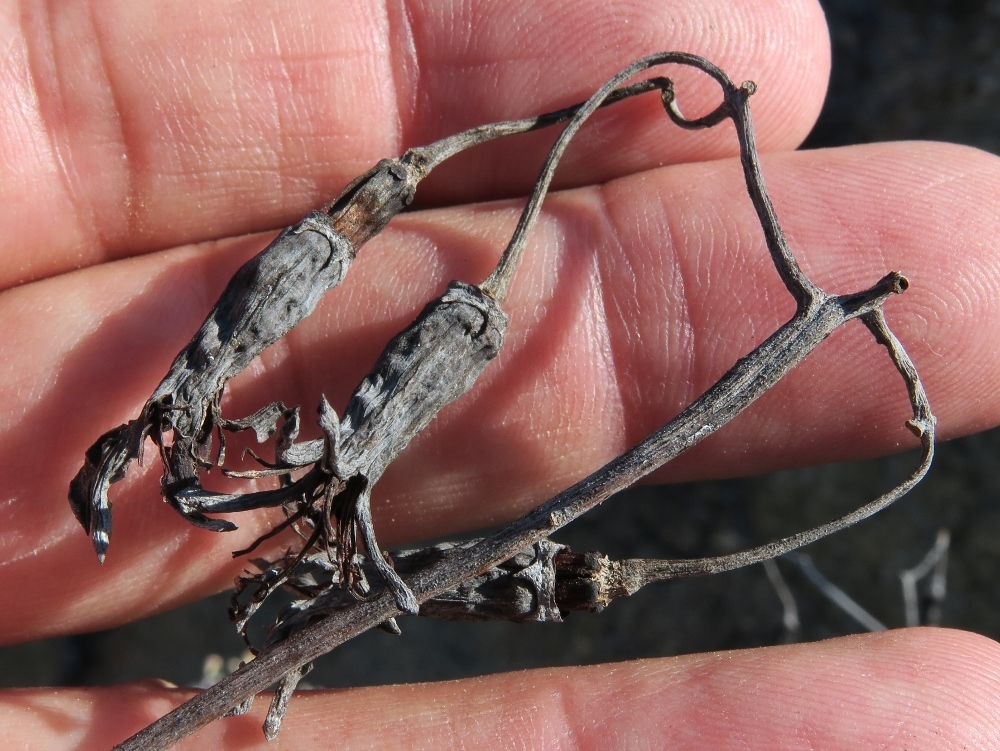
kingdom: Plantae
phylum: Tracheophyta
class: Magnoliopsida
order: Saxifragales
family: Crassulaceae
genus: Cotyledon
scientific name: Cotyledon orbiculata
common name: Pig's ear
